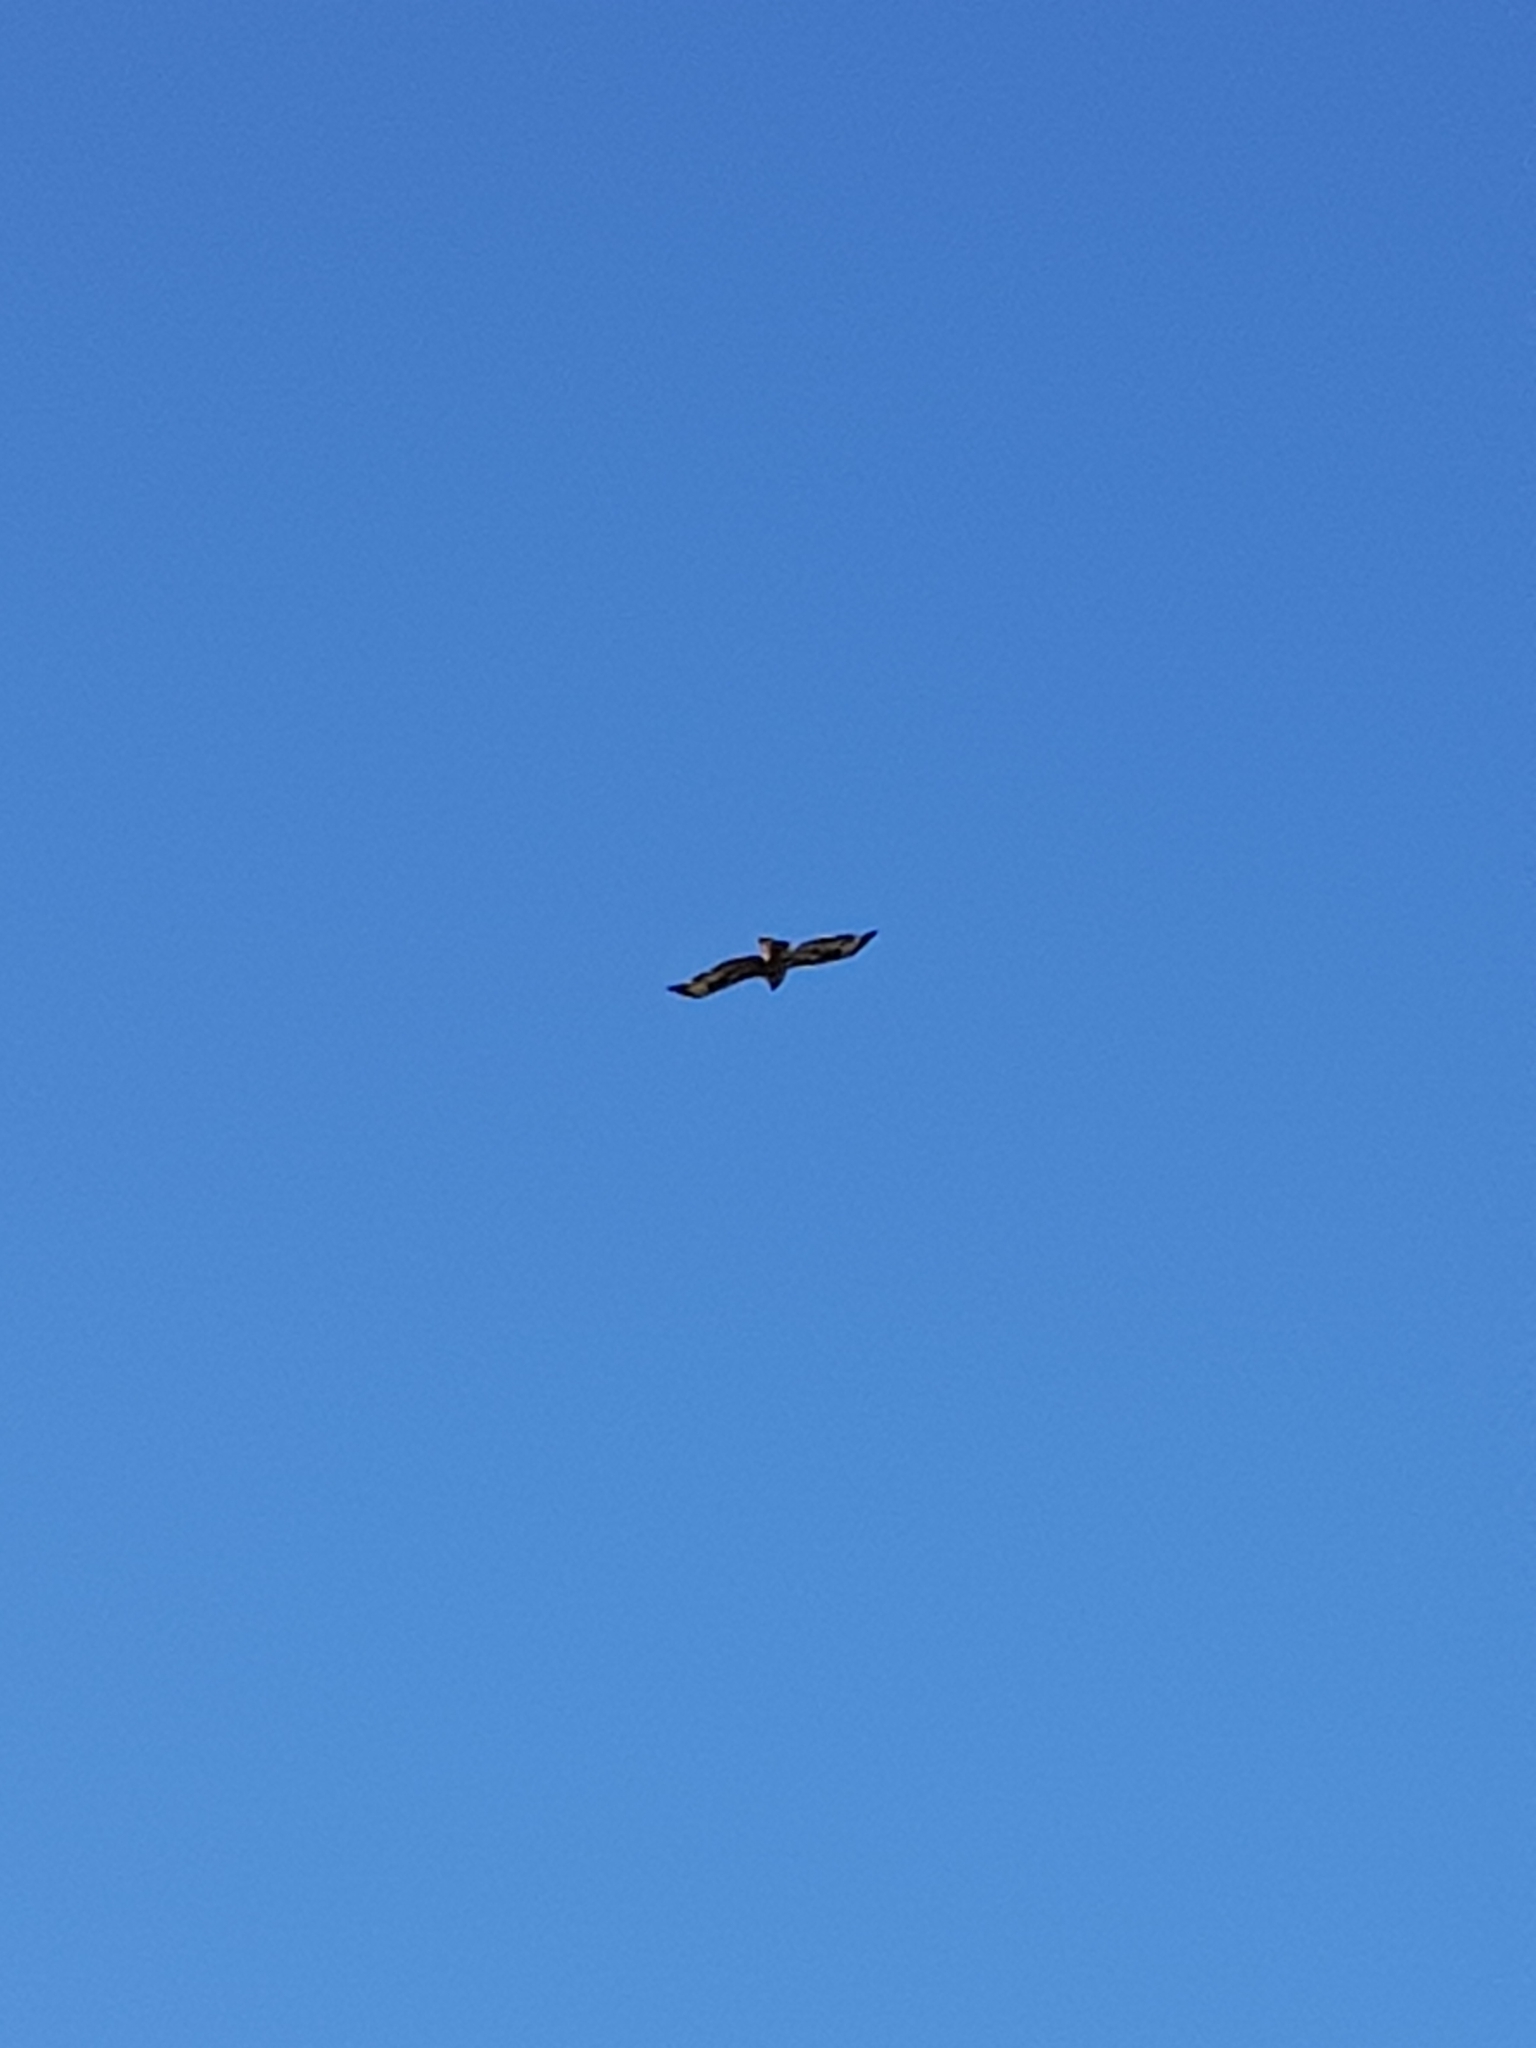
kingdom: Animalia
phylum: Chordata
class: Aves
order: Accipitriformes
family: Accipitridae
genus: Buteo
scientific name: Buteo buteo
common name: Common buzzard
